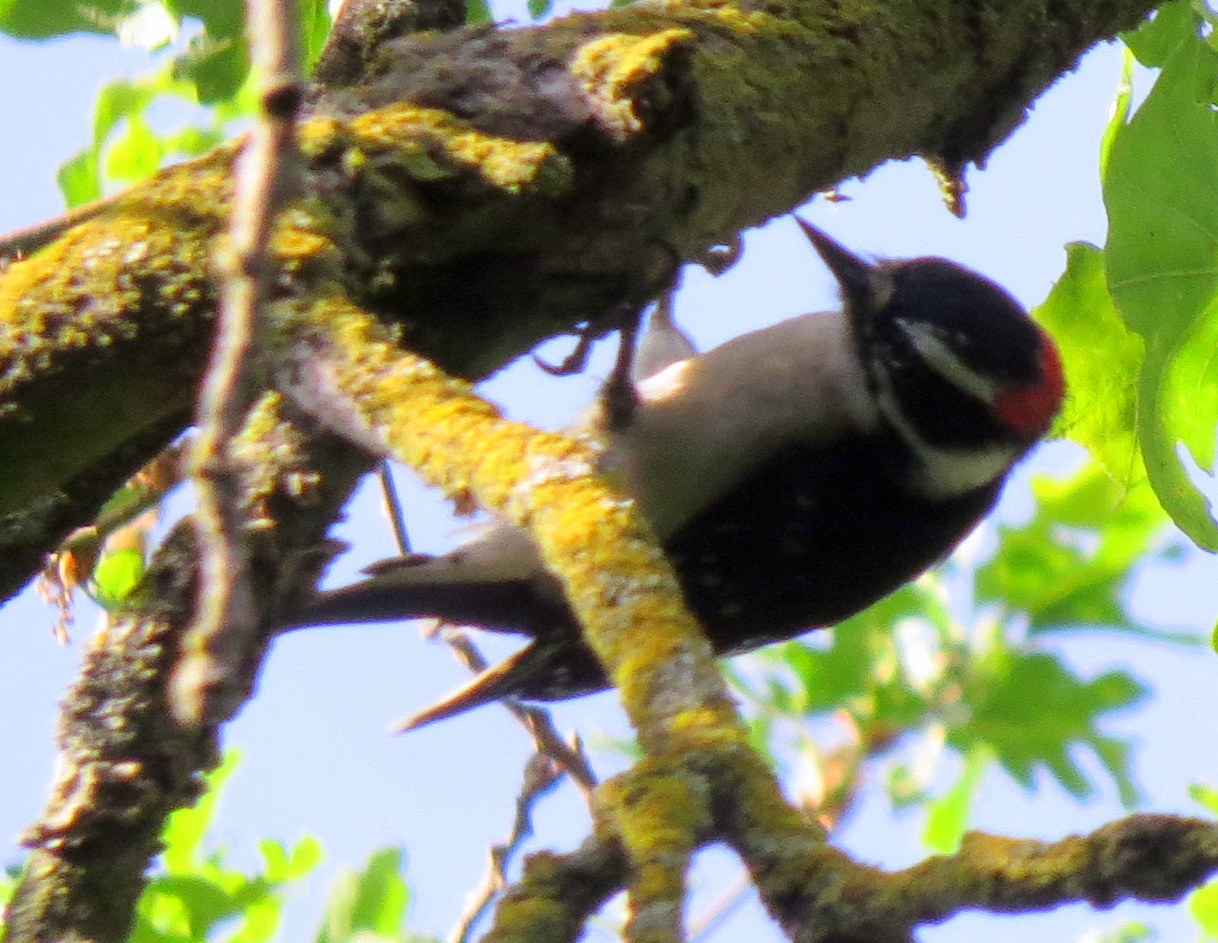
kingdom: Animalia
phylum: Chordata
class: Aves
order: Piciformes
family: Picidae
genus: Dryobates
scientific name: Dryobates pubescens
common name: Downy woodpecker
